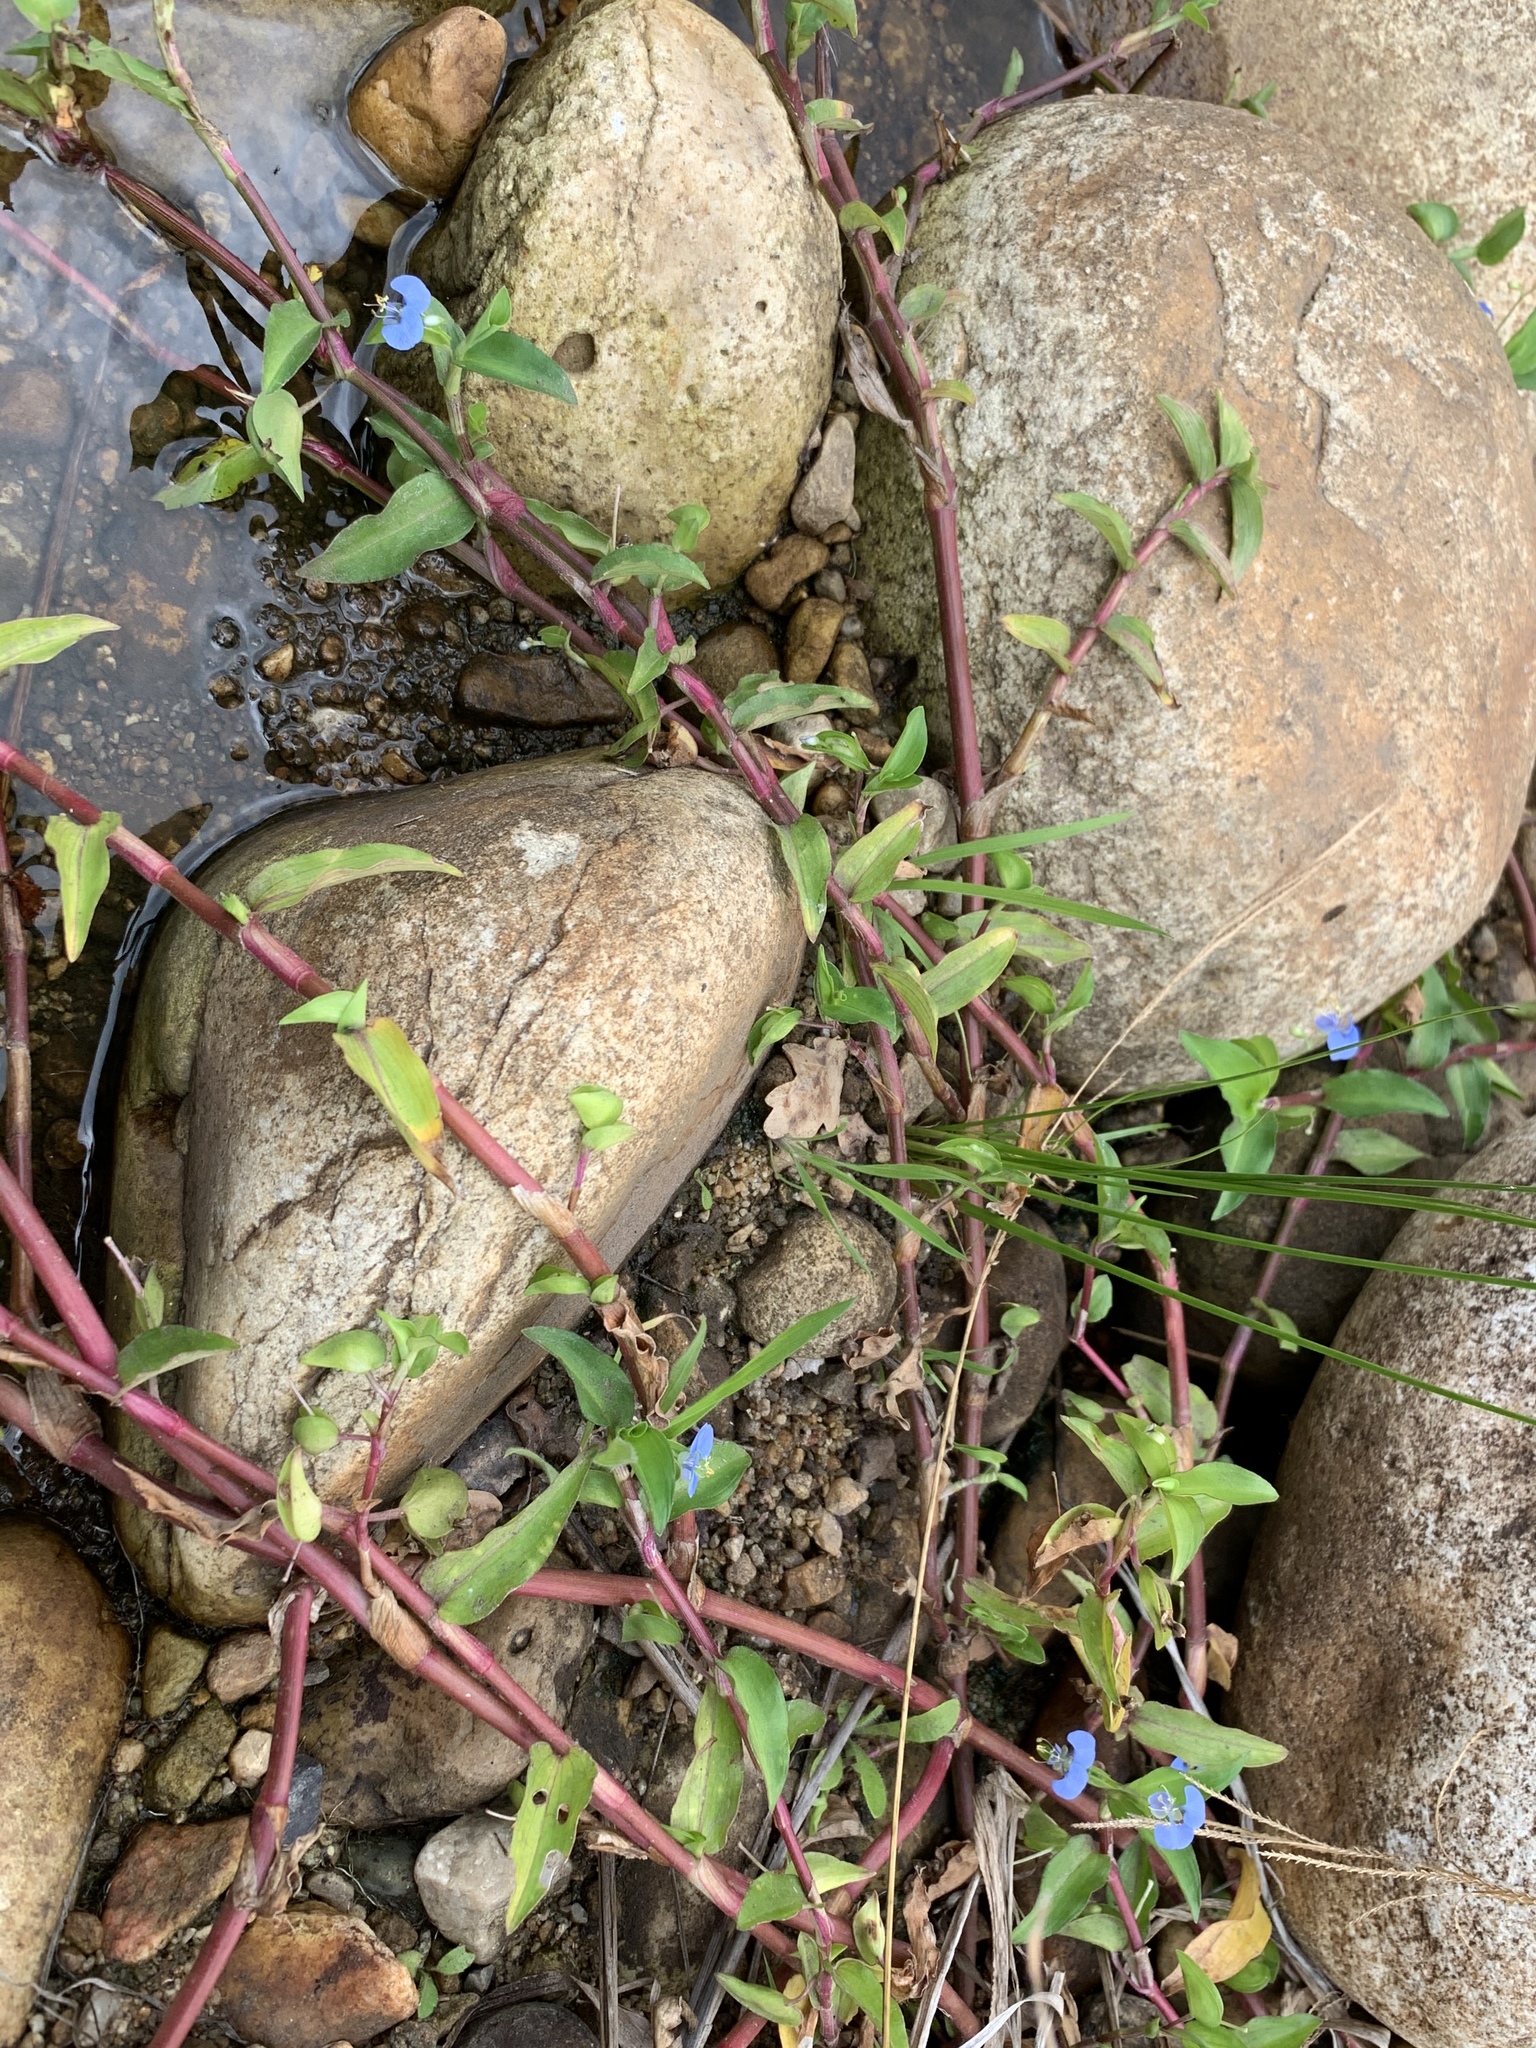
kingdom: Plantae
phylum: Tracheophyta
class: Liliopsida
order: Commelinales
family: Commelinaceae
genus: Commelina
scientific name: Commelina diffusa
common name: Climbing dayflower
